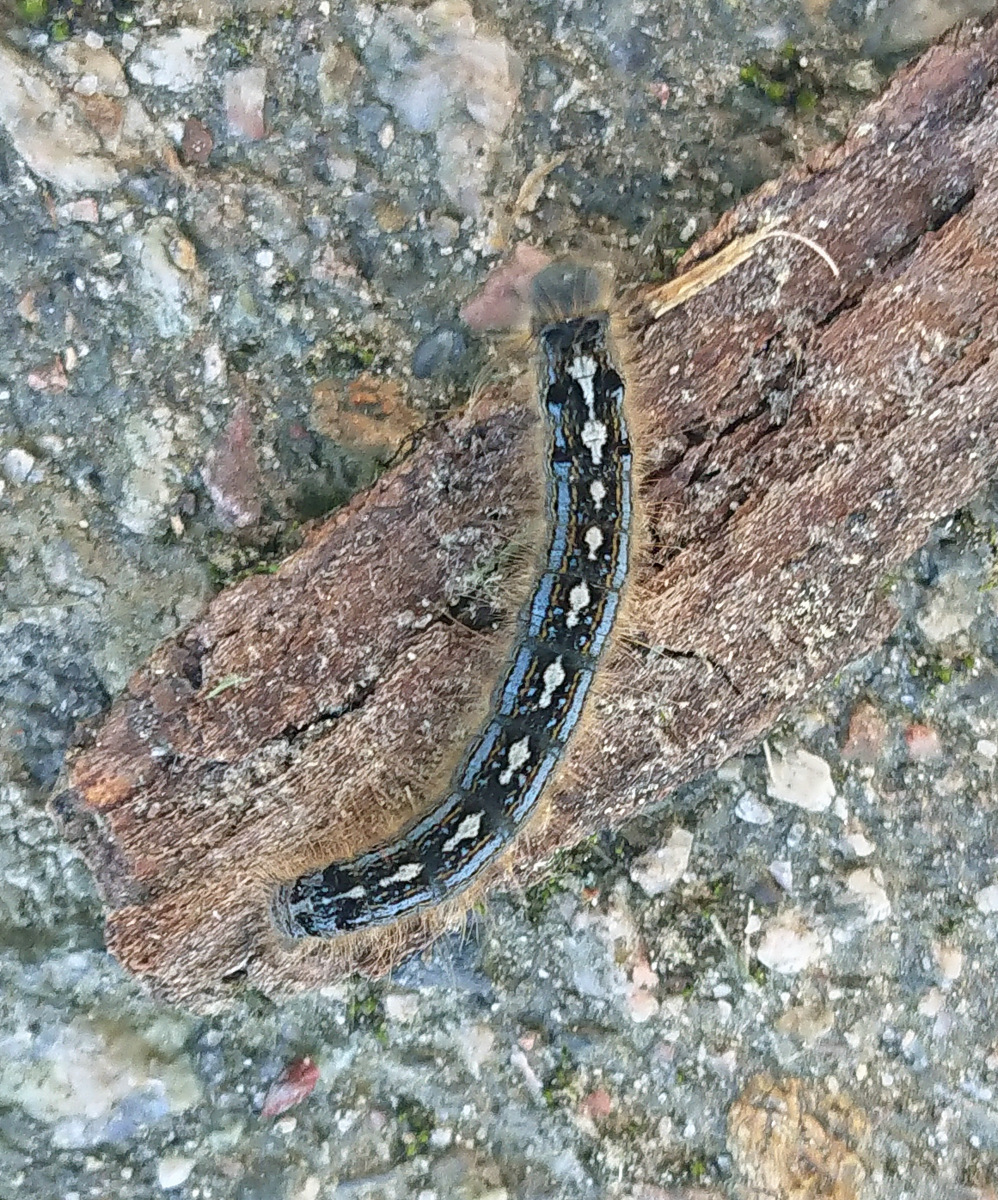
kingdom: Animalia
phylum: Arthropoda
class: Insecta
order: Lepidoptera
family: Lasiocampidae
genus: Malacosoma
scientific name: Malacosoma disstria
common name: Forest tent caterpillar
